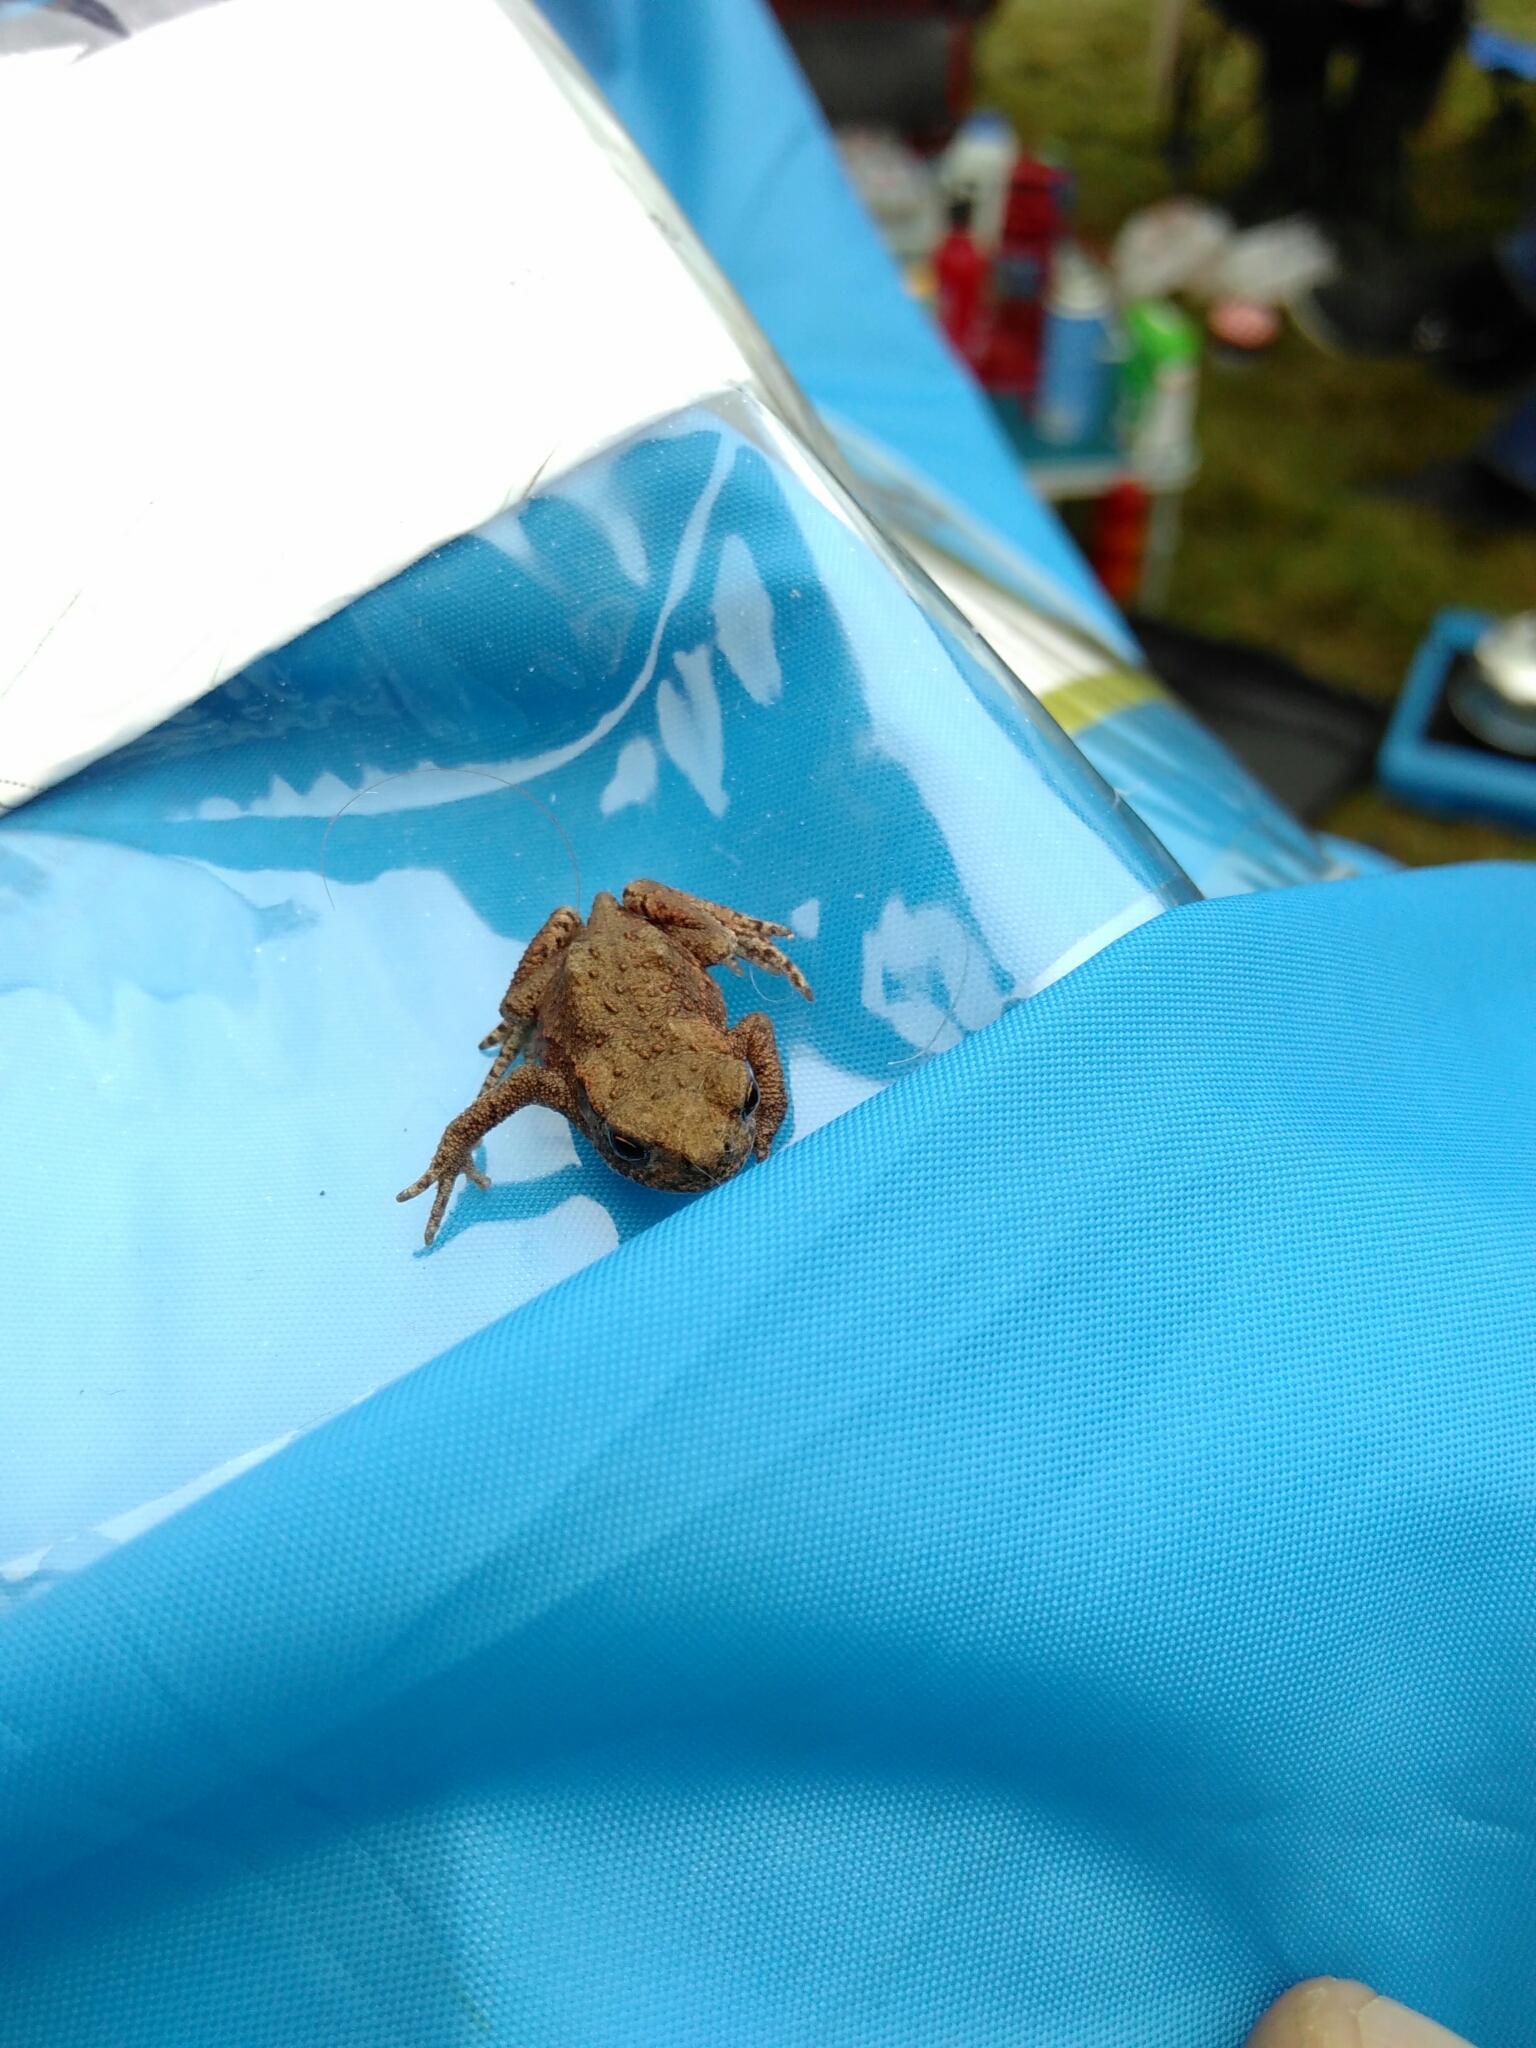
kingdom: Animalia
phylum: Chordata
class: Amphibia
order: Anura
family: Bufonidae
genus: Bufo
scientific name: Bufo bufo
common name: Common toad
